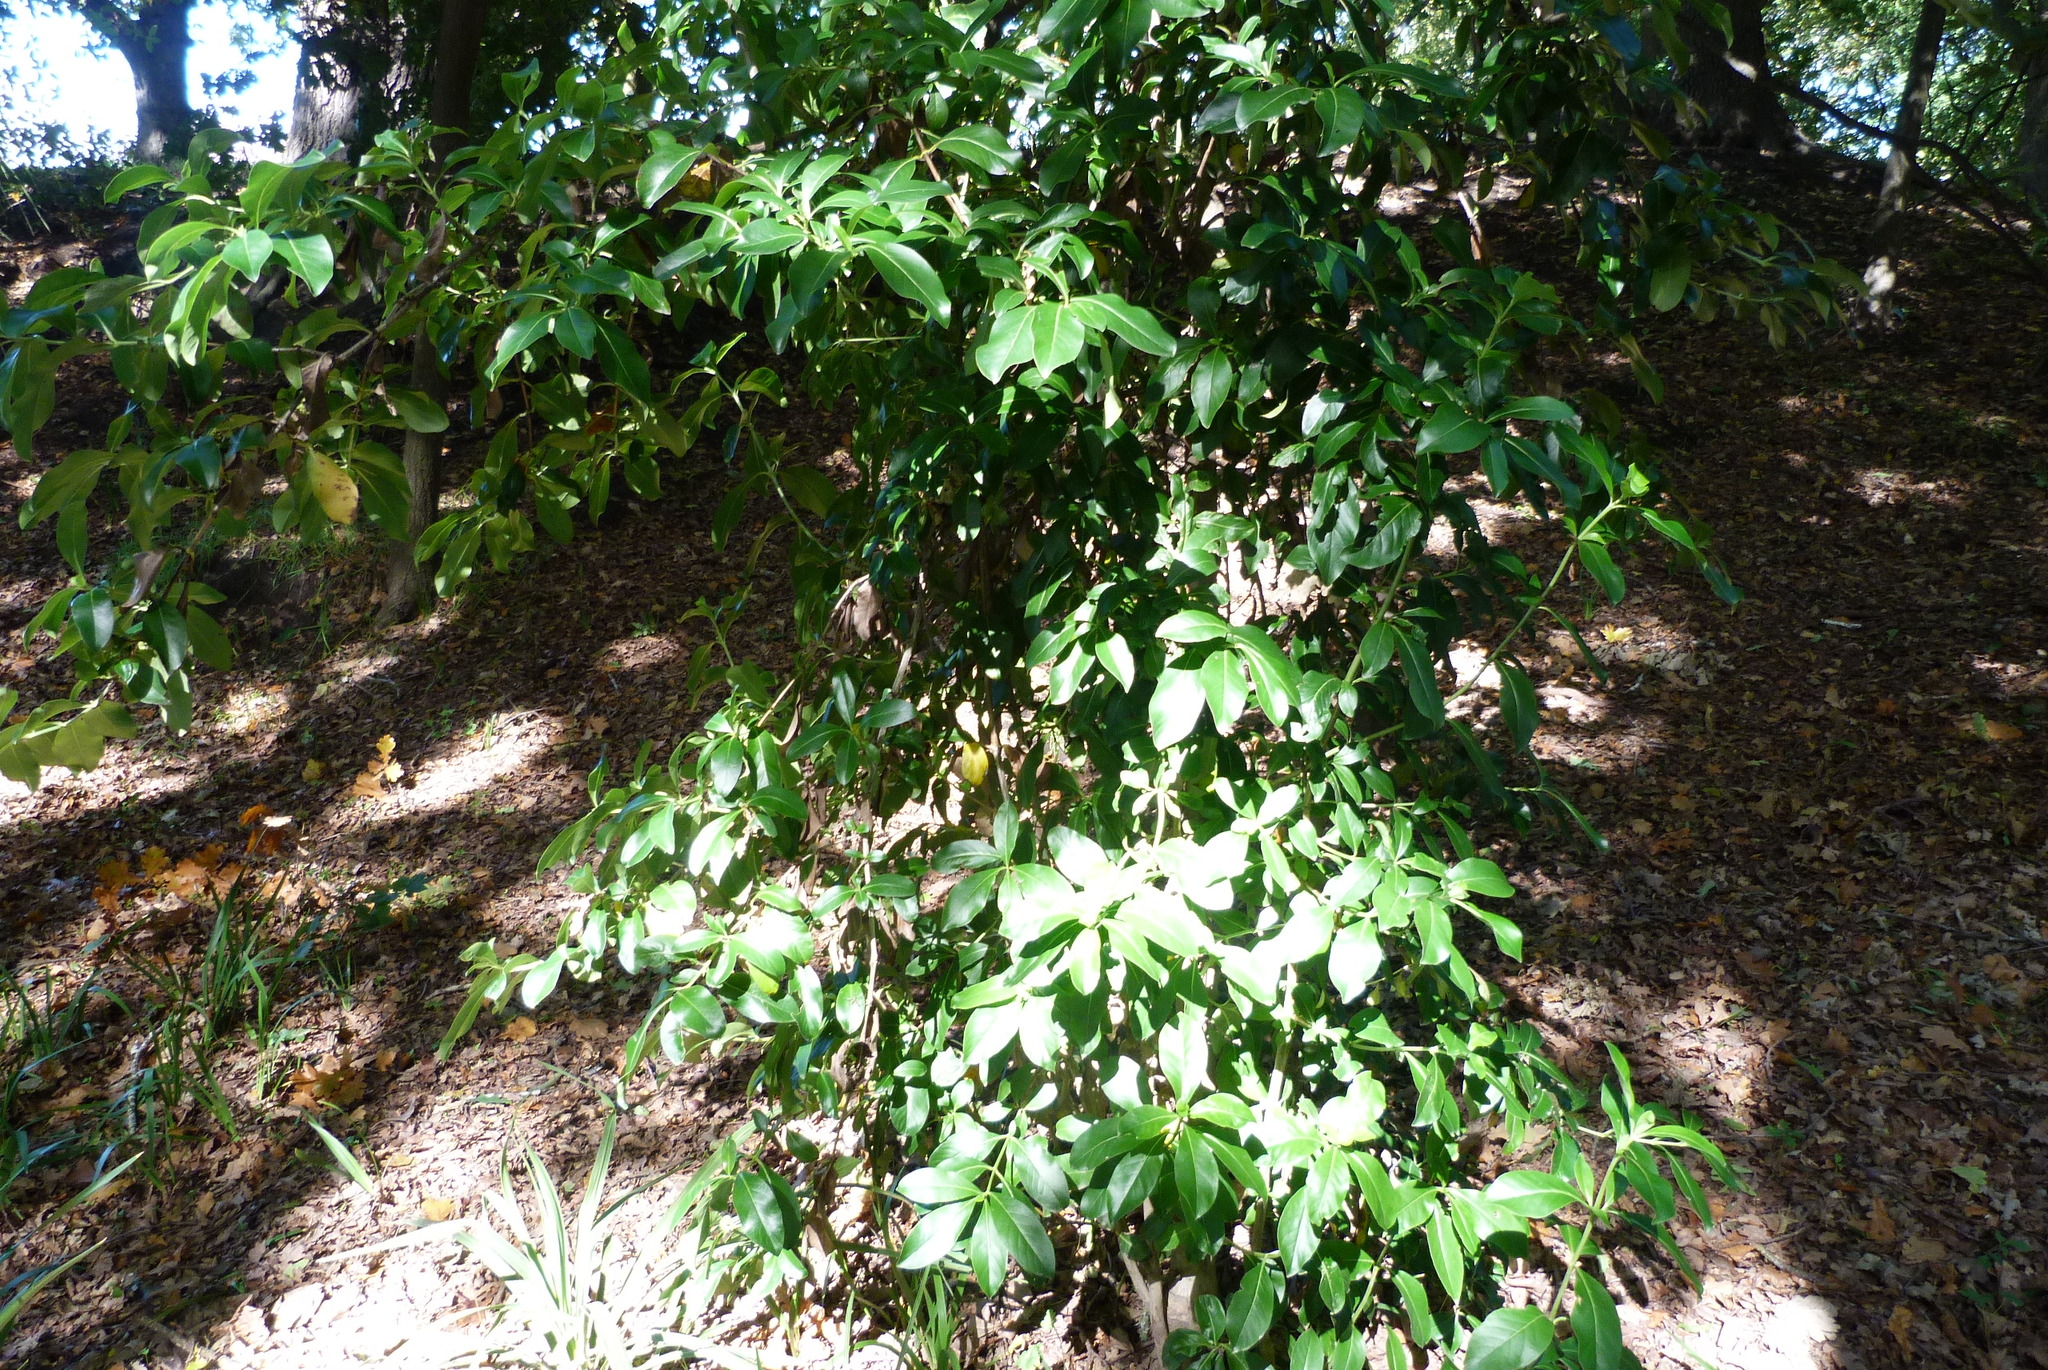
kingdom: Plantae
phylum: Tracheophyta
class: Magnoliopsida
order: Gentianales
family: Rubiaceae
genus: Coprosma
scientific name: Coprosma robusta
